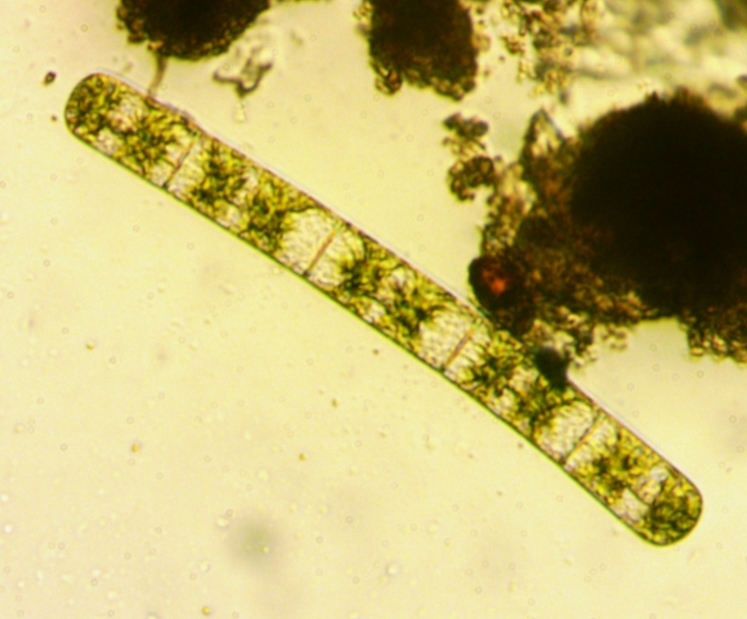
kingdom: Plantae
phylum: Charophyta
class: Zygnematophyceae
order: Zygnematales
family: Zygnemataceae
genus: Zygnema
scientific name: Zygnema
